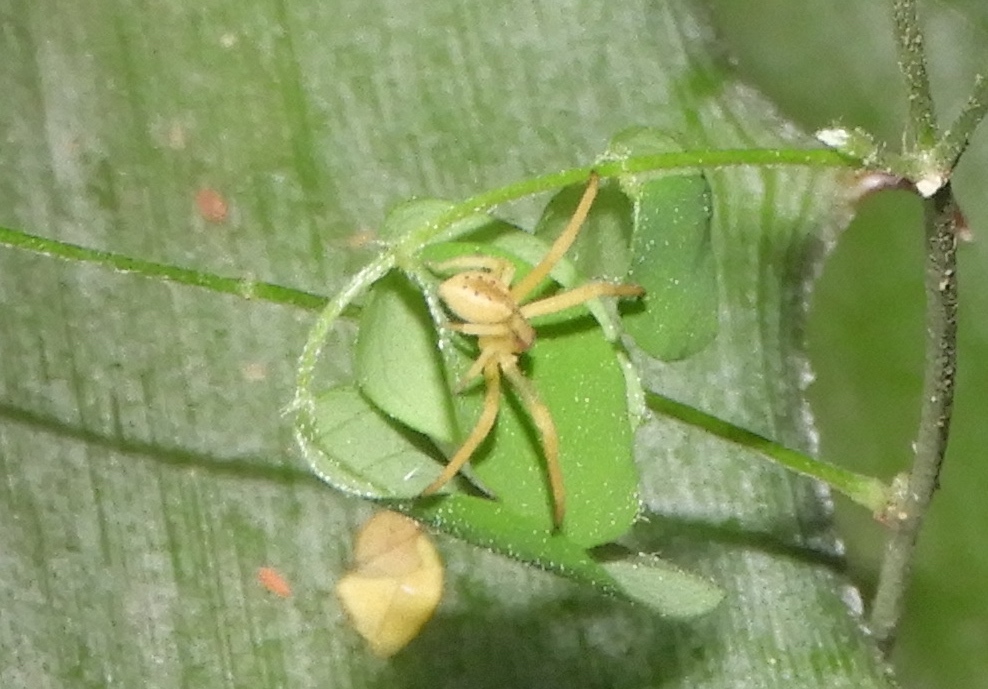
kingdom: Animalia
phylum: Arthropoda
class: Arachnida
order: Araneae
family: Thomisidae
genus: Isaloides
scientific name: Isaloides putus
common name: Crab spiders
